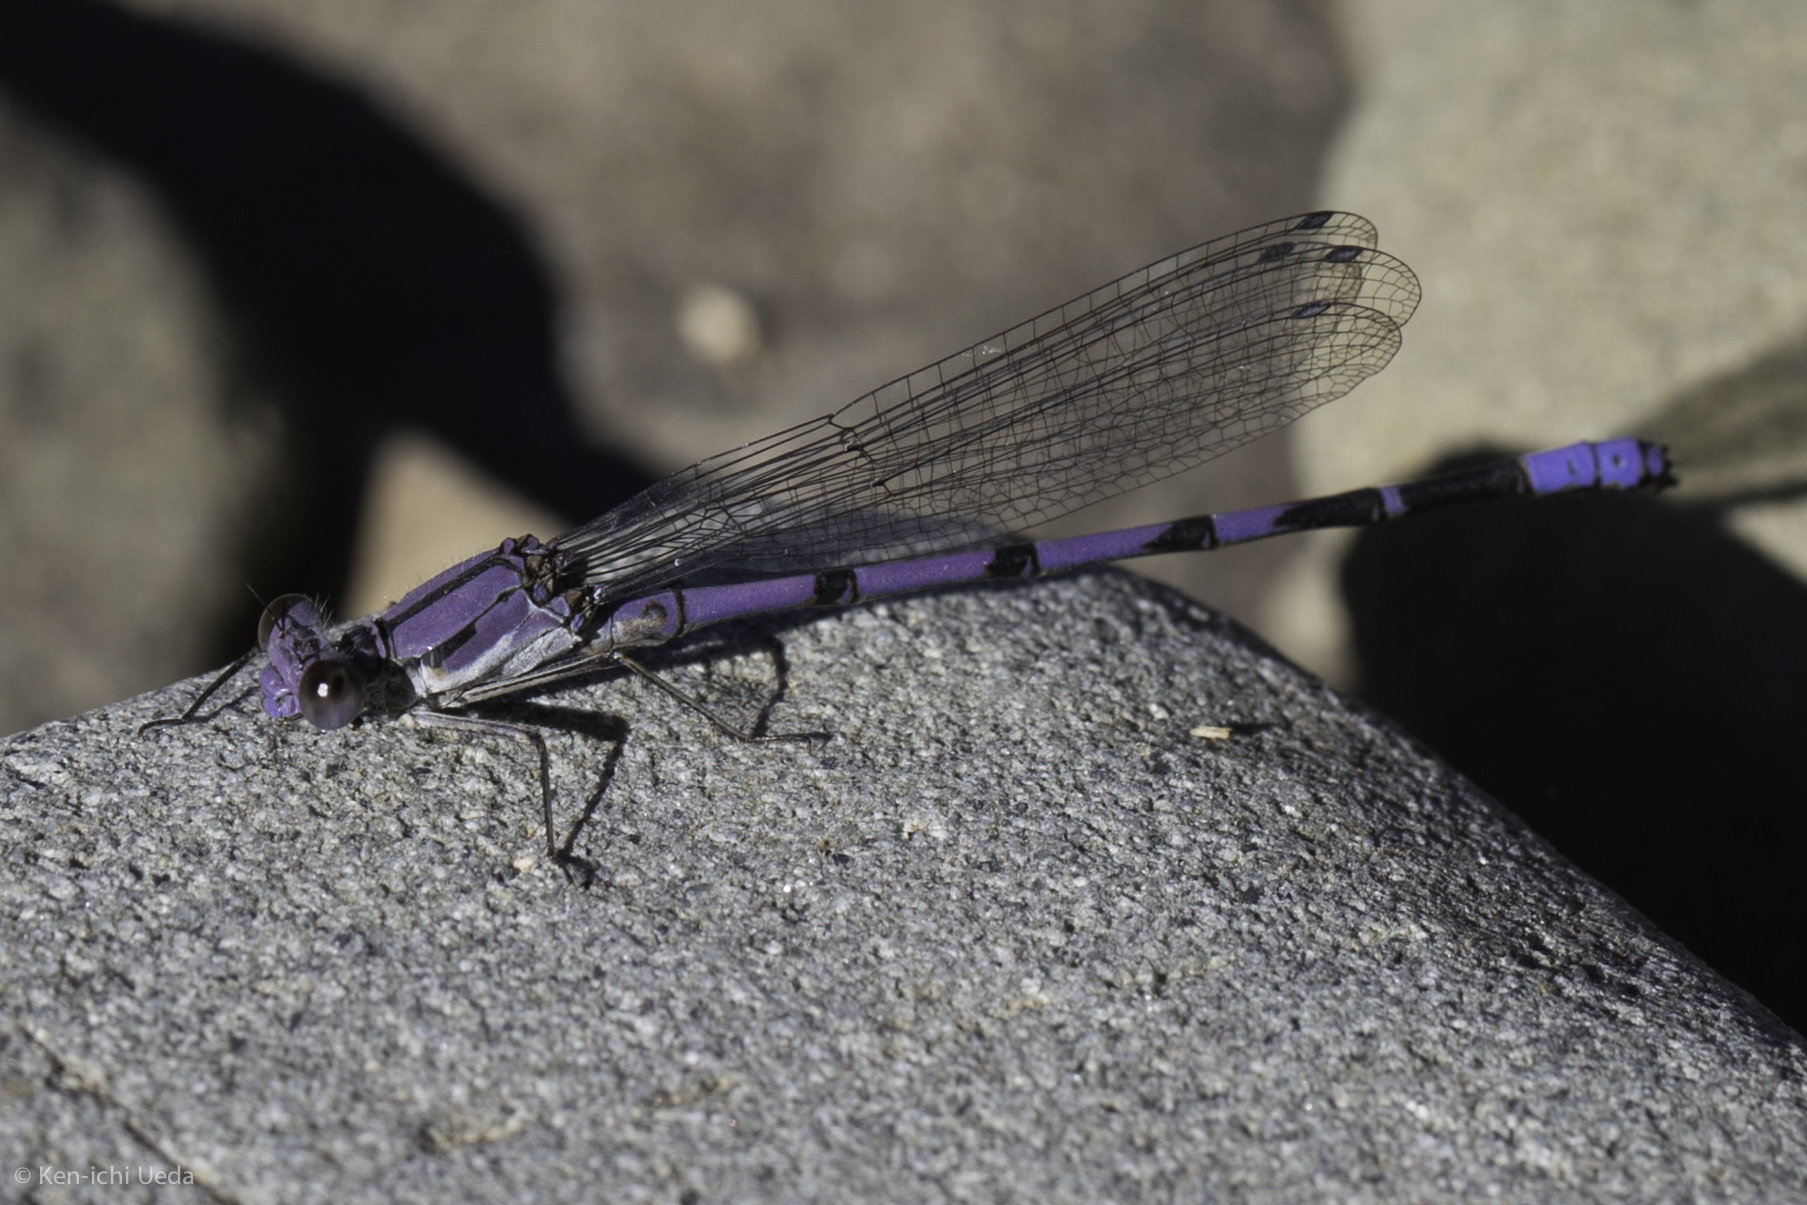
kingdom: Animalia
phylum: Arthropoda
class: Insecta
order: Odonata
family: Coenagrionidae
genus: Argia
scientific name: Argia emma
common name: Emma's dancer
